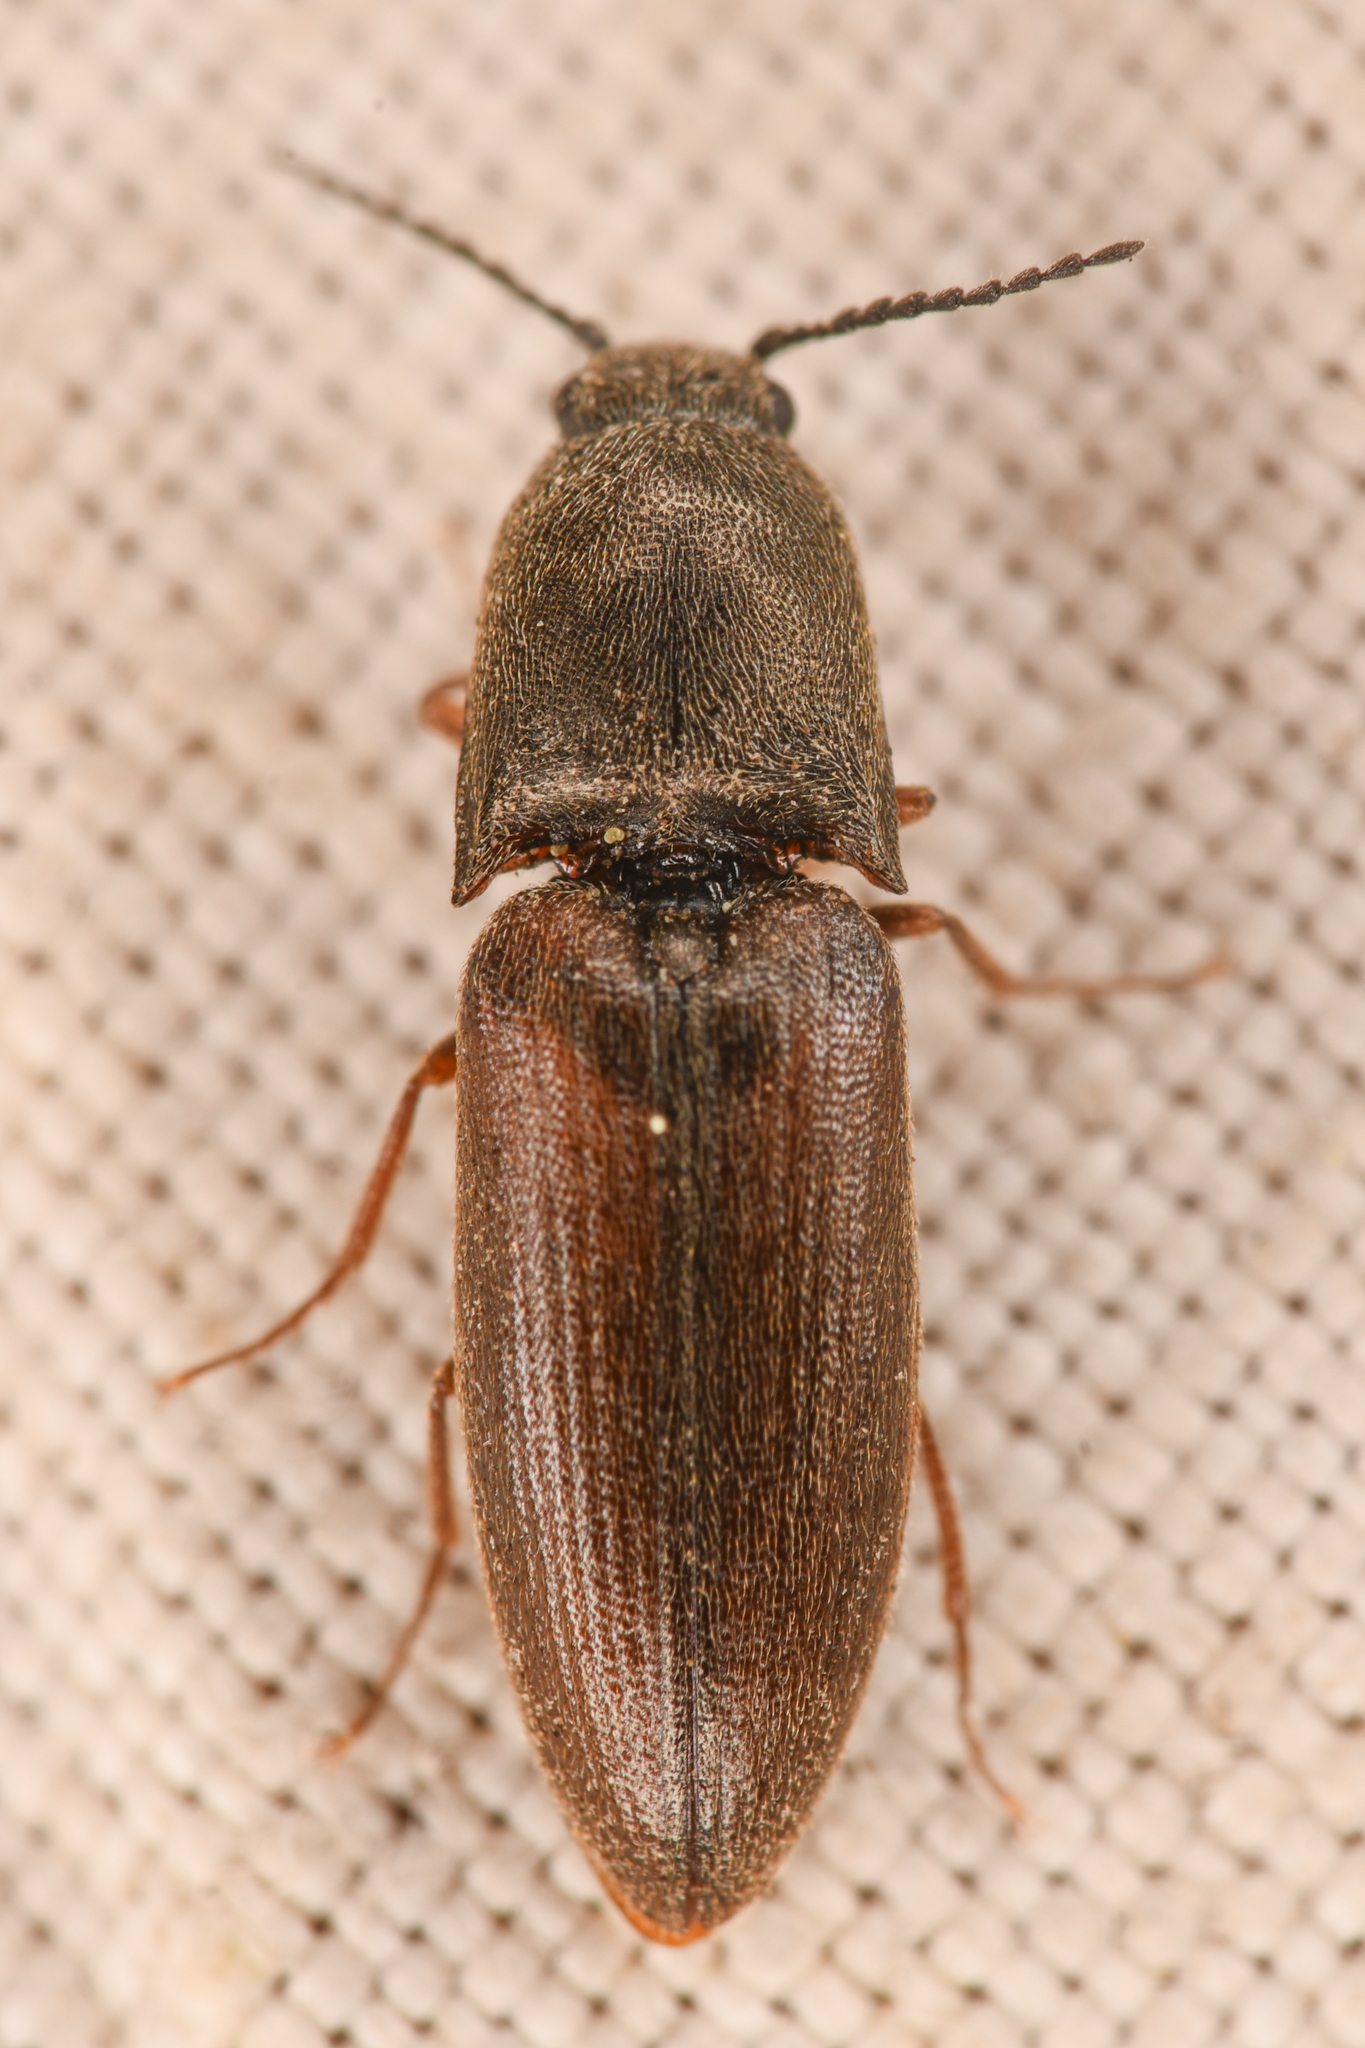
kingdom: Animalia
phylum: Arthropoda
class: Insecta
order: Coleoptera
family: Elateridae
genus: Sericus
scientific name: Sericus incongruus
